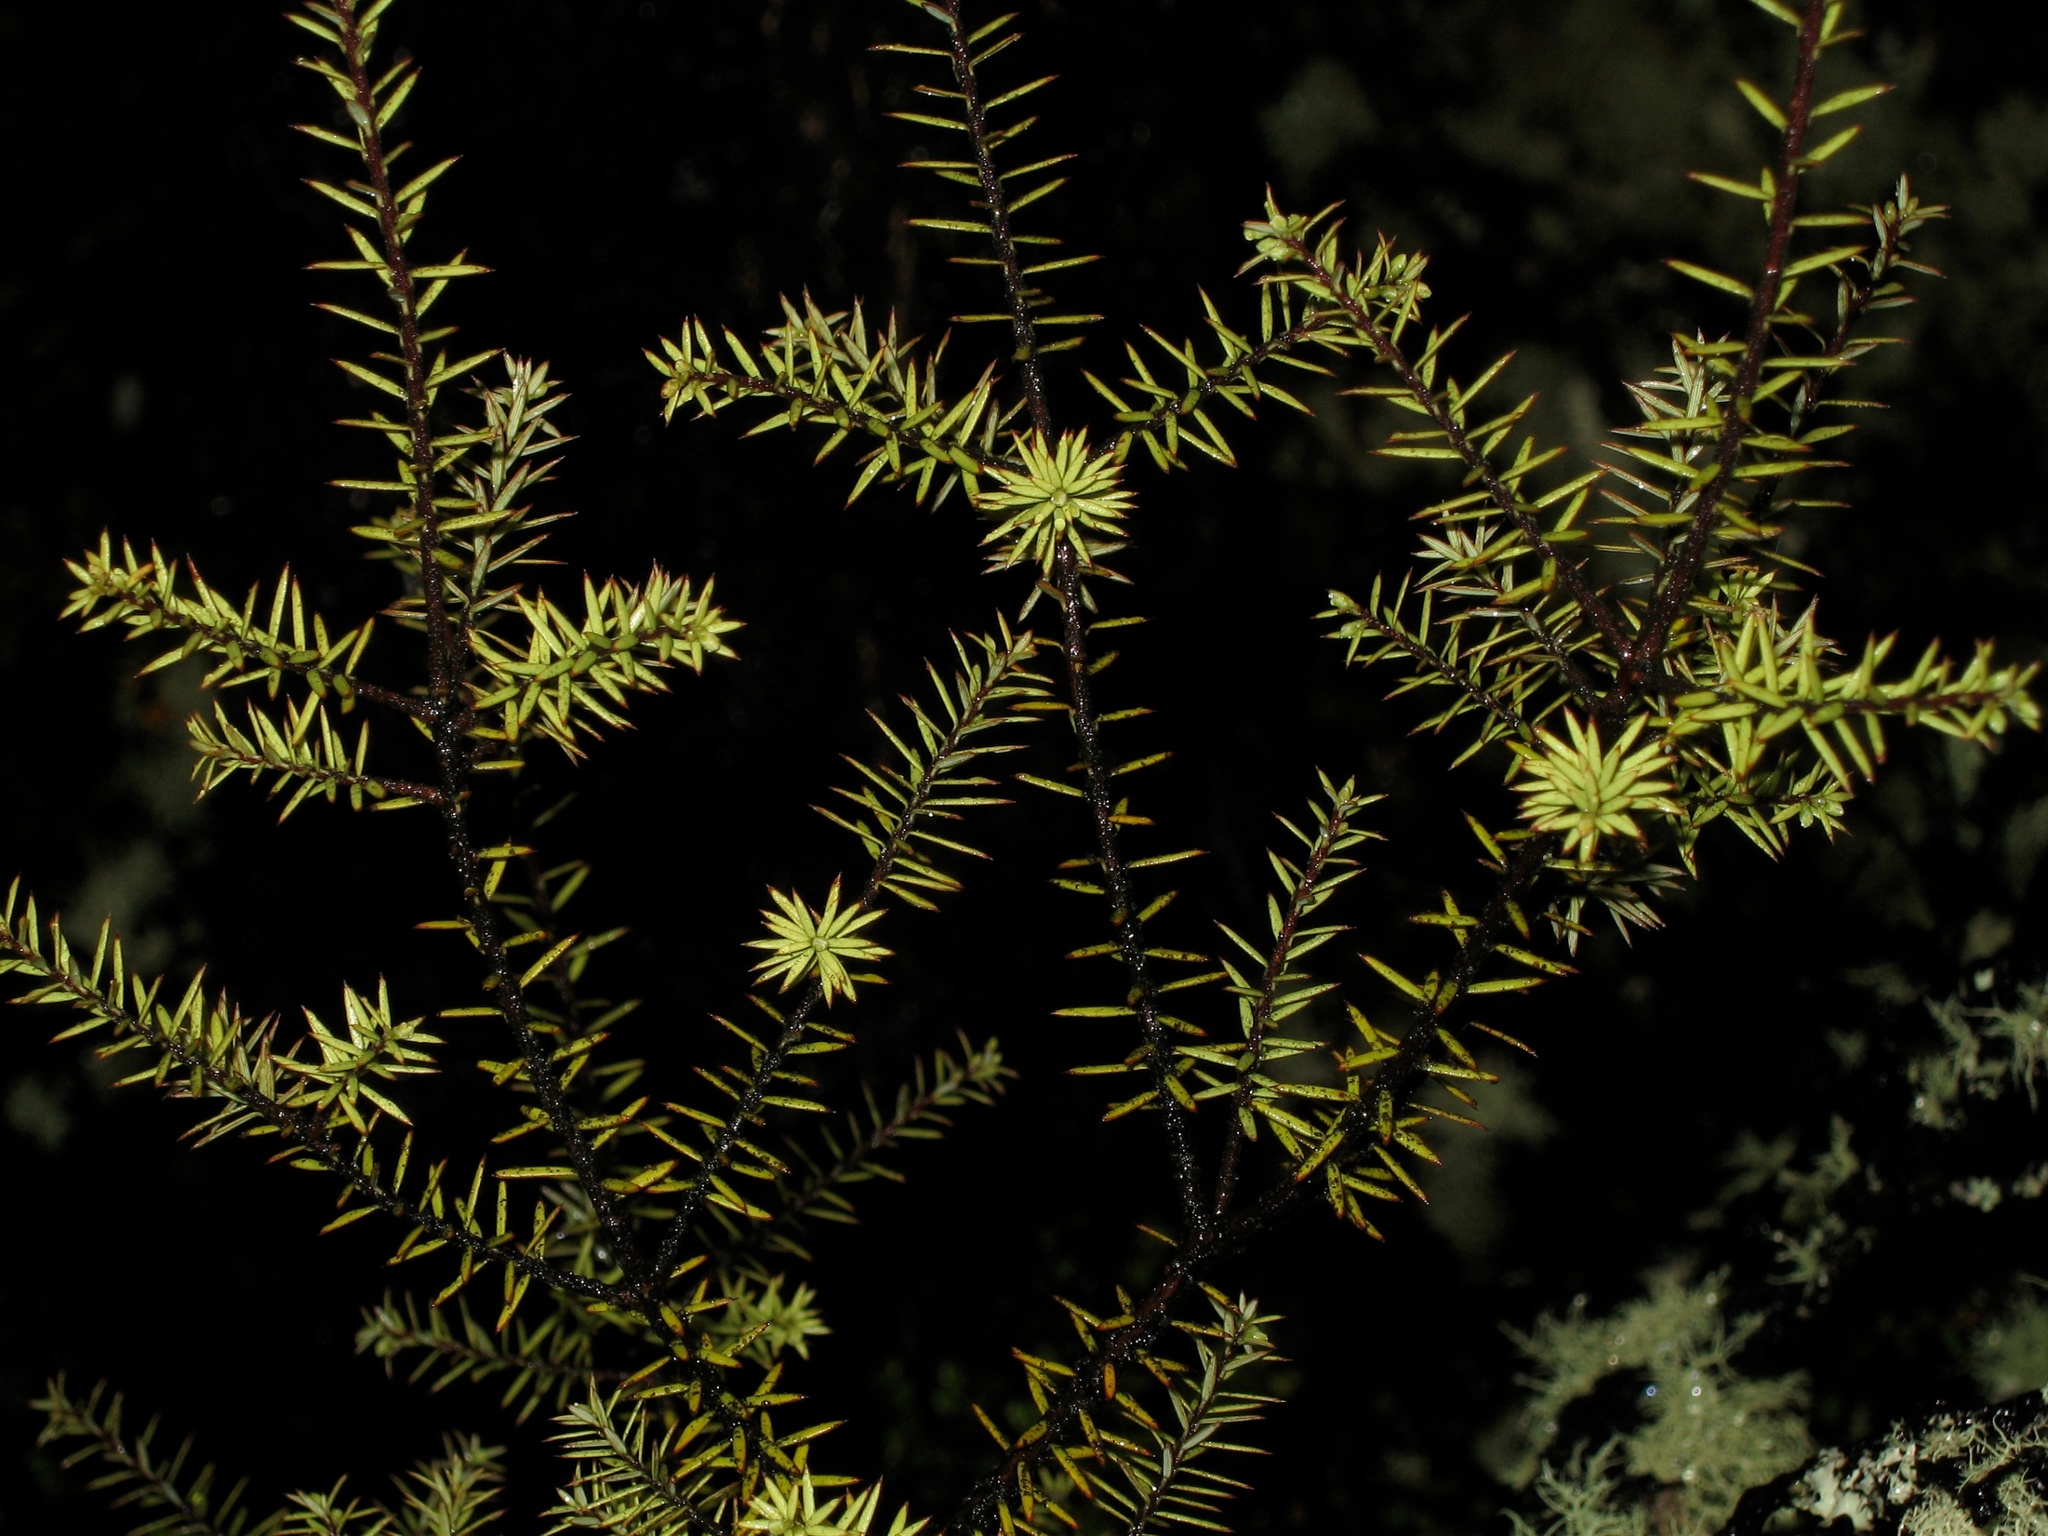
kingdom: Plantae
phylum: Tracheophyta
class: Magnoliopsida
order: Ericales
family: Ericaceae
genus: Leptecophylla
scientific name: Leptecophylla juniperina
